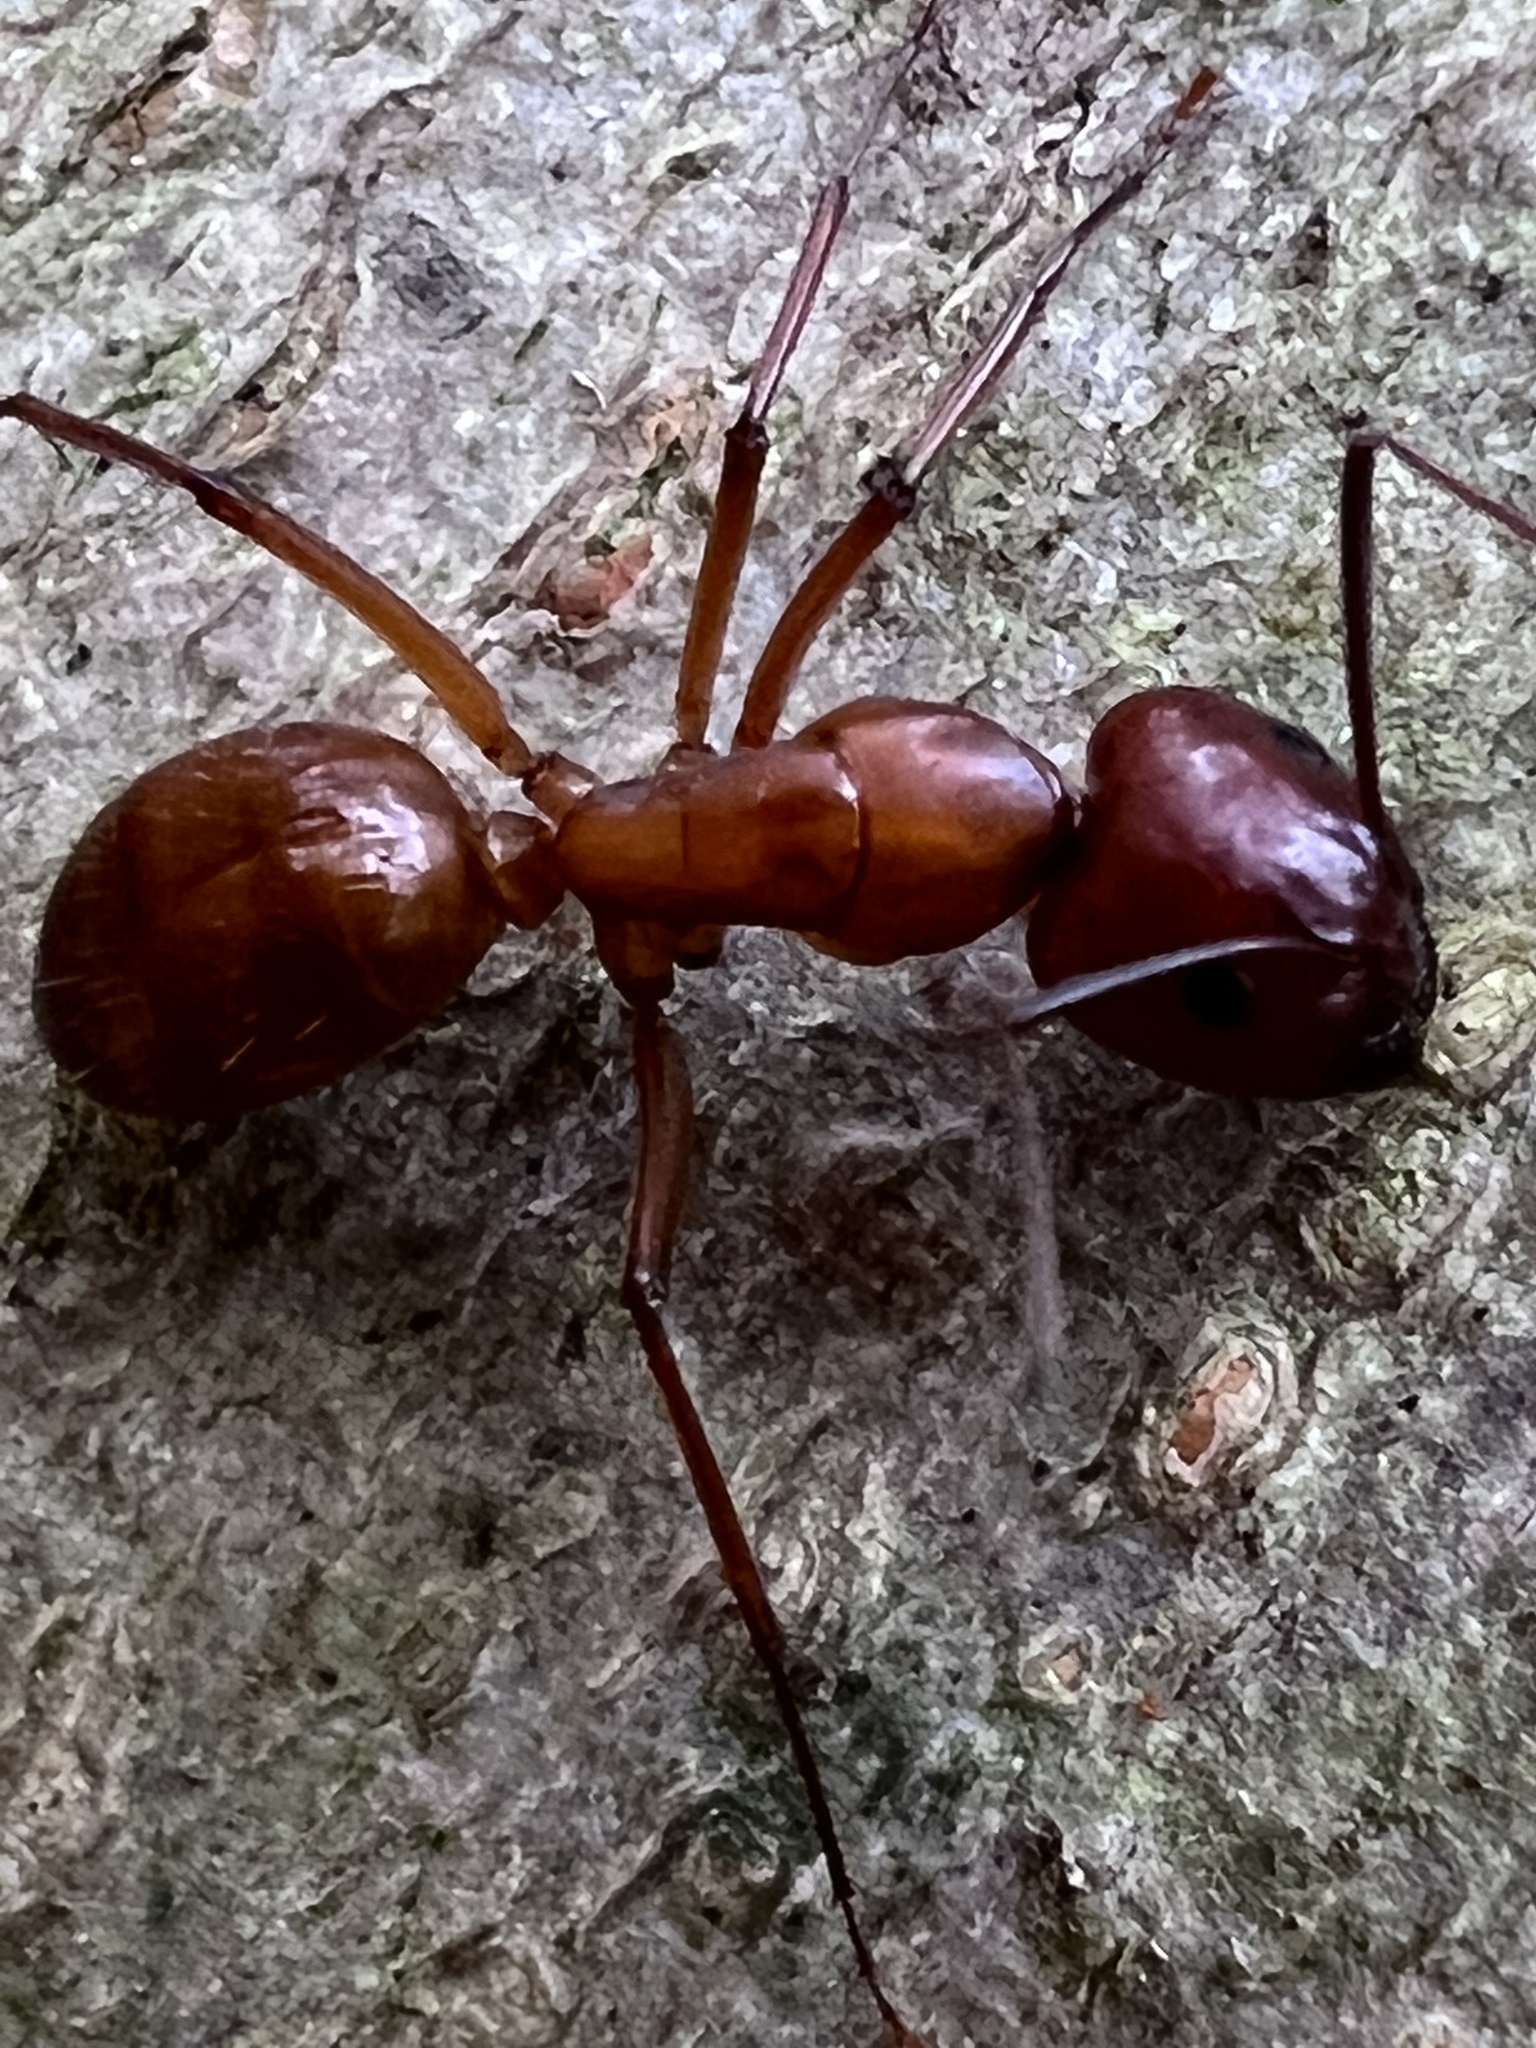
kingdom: Animalia
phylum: Arthropoda
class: Insecta
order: Hymenoptera
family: Formicidae
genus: Camponotus
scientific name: Camponotus castaneus
